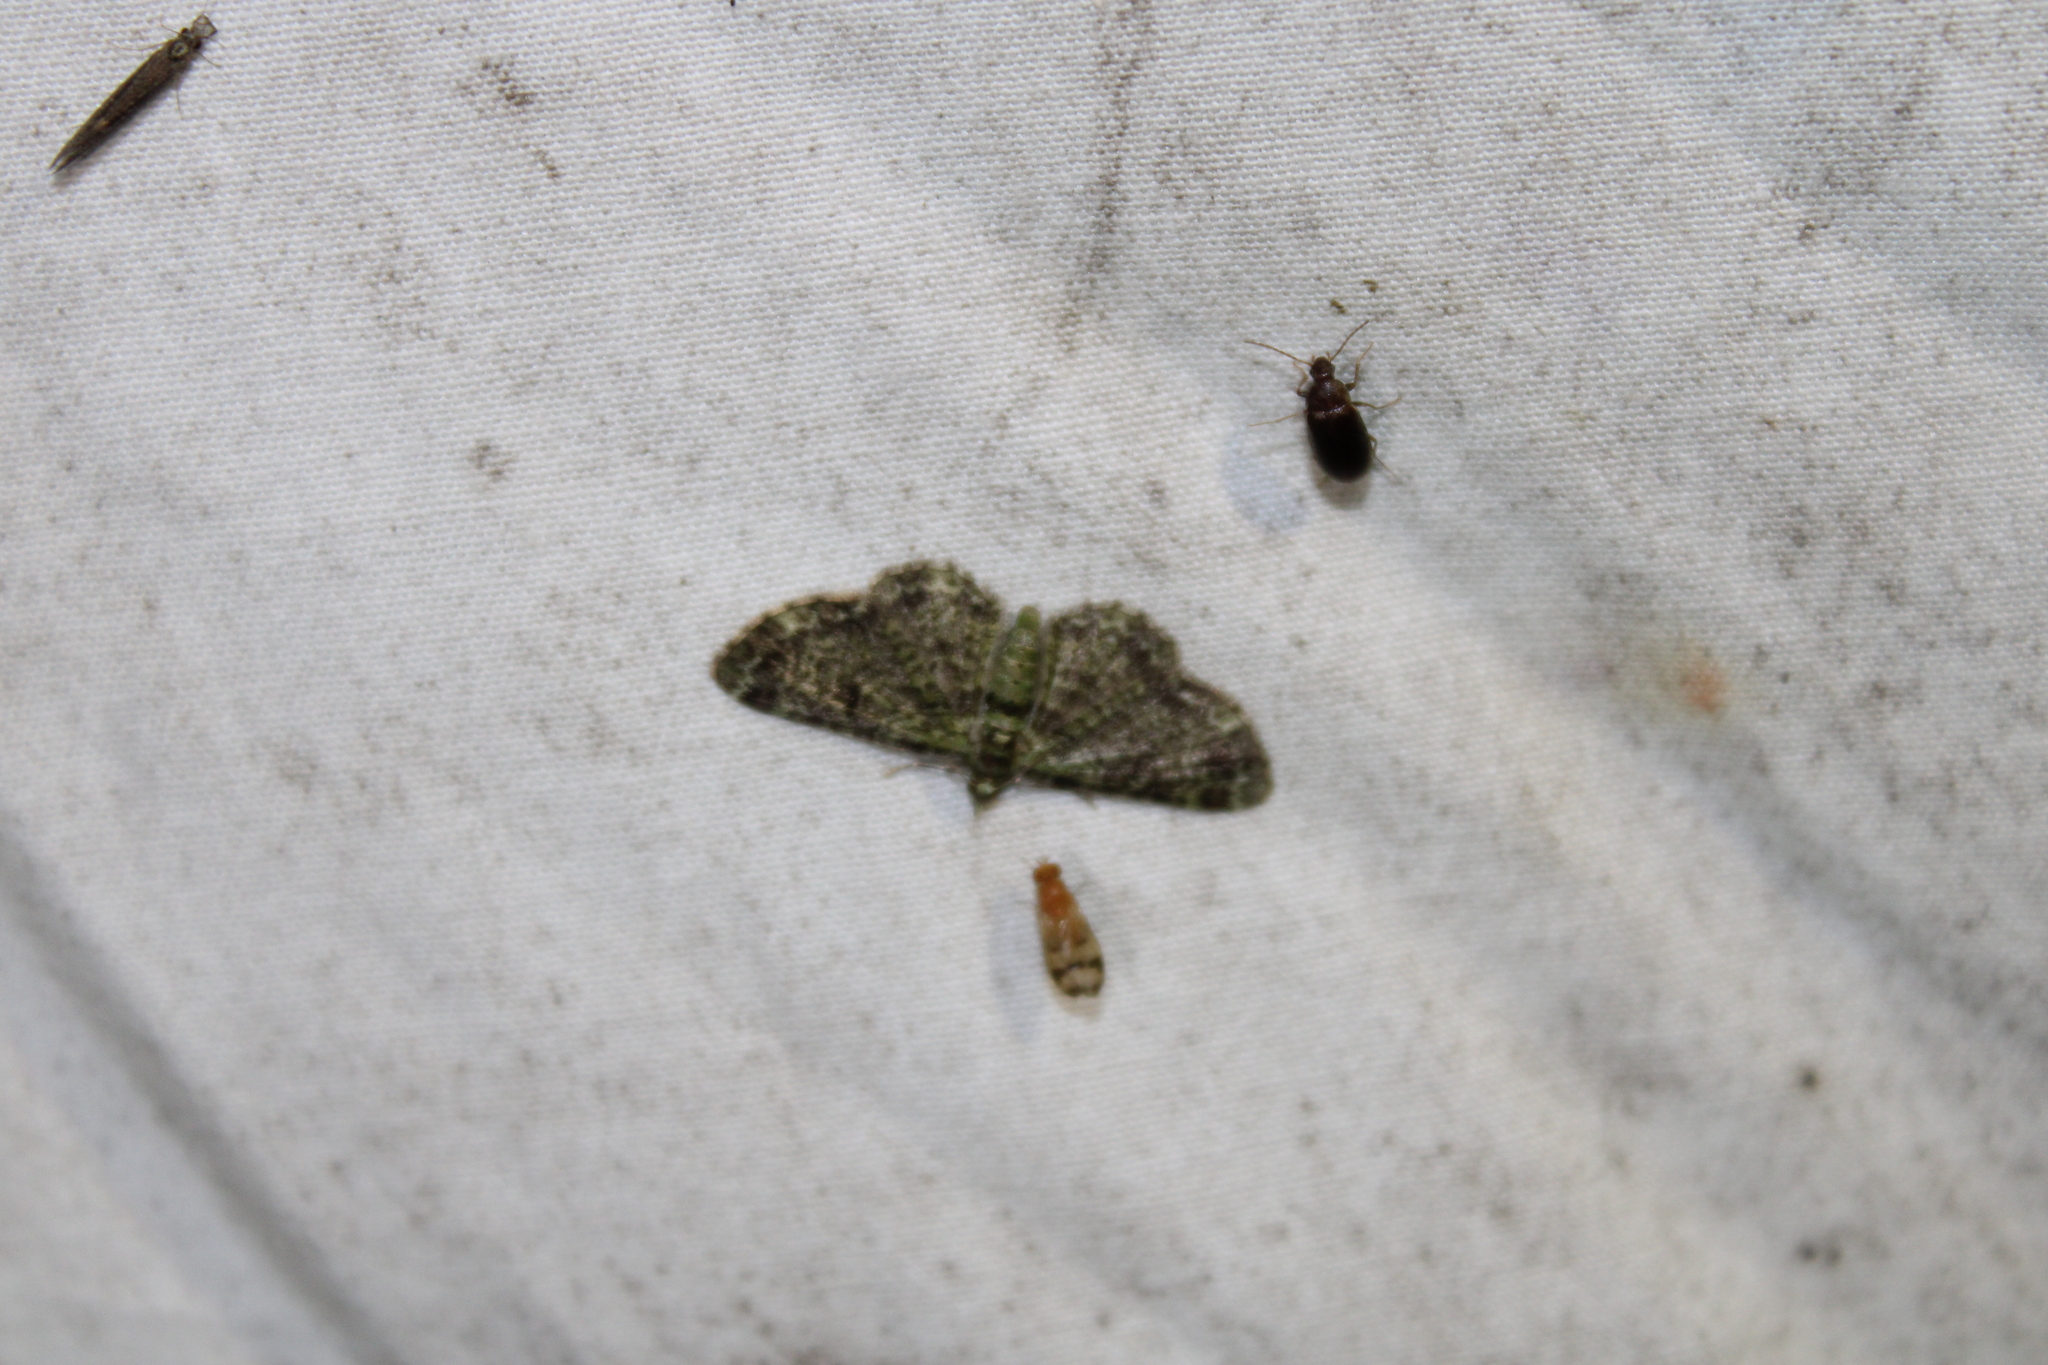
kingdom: Animalia
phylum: Arthropoda
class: Insecta
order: Lepidoptera
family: Geometridae
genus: Pasiphila
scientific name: Pasiphila rectangulata
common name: Green pug
